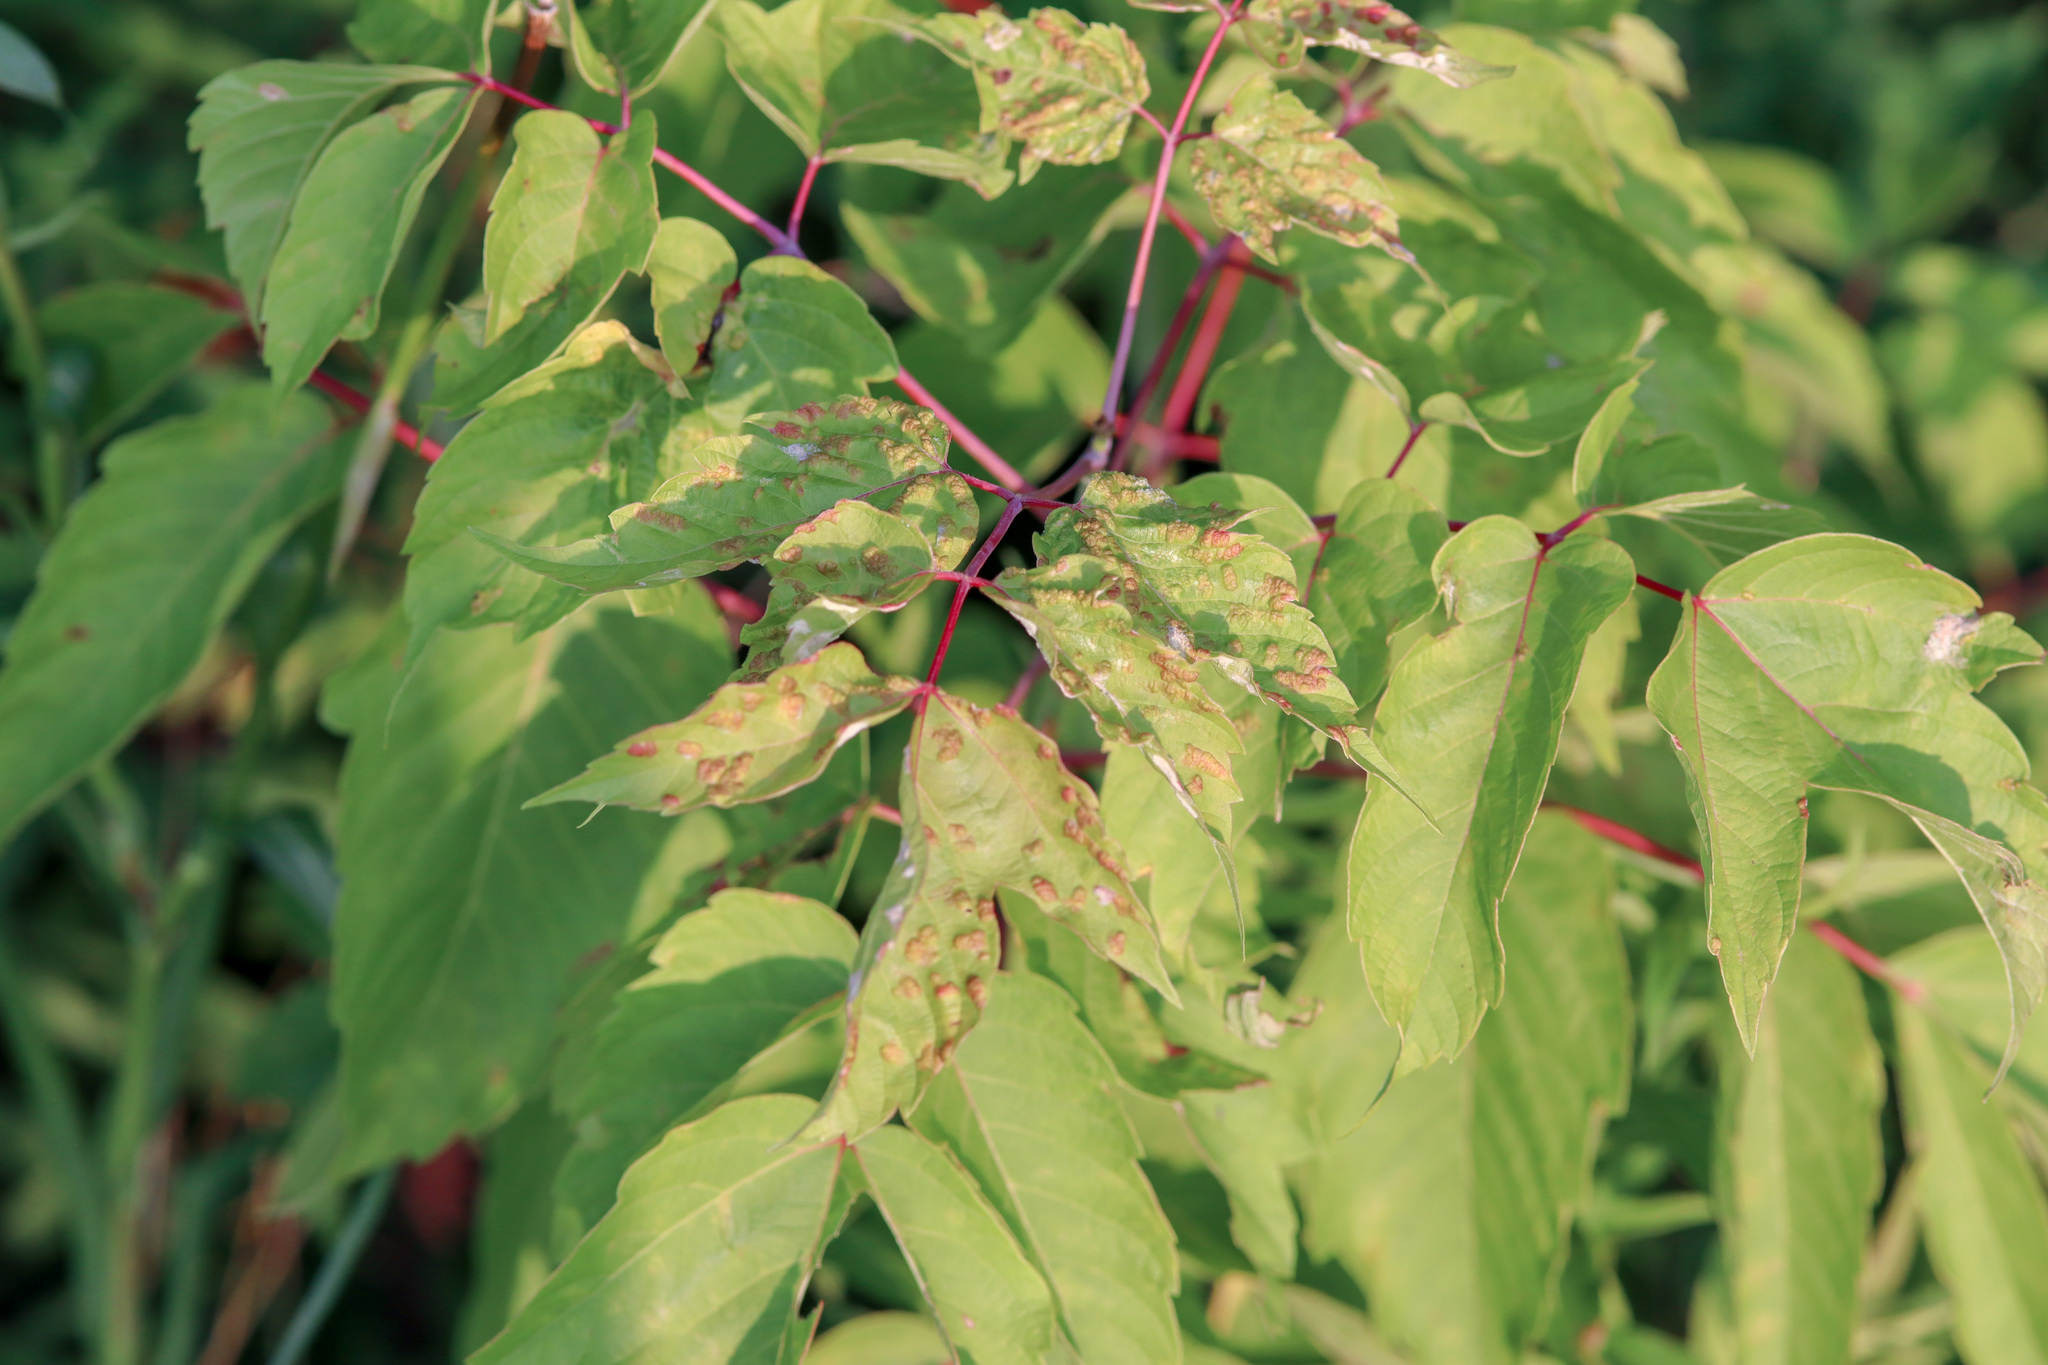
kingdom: Plantae
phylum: Tracheophyta
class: Magnoliopsida
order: Sapindales
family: Sapindaceae
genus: Acer
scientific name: Acer negundo
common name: Ashleaf maple
